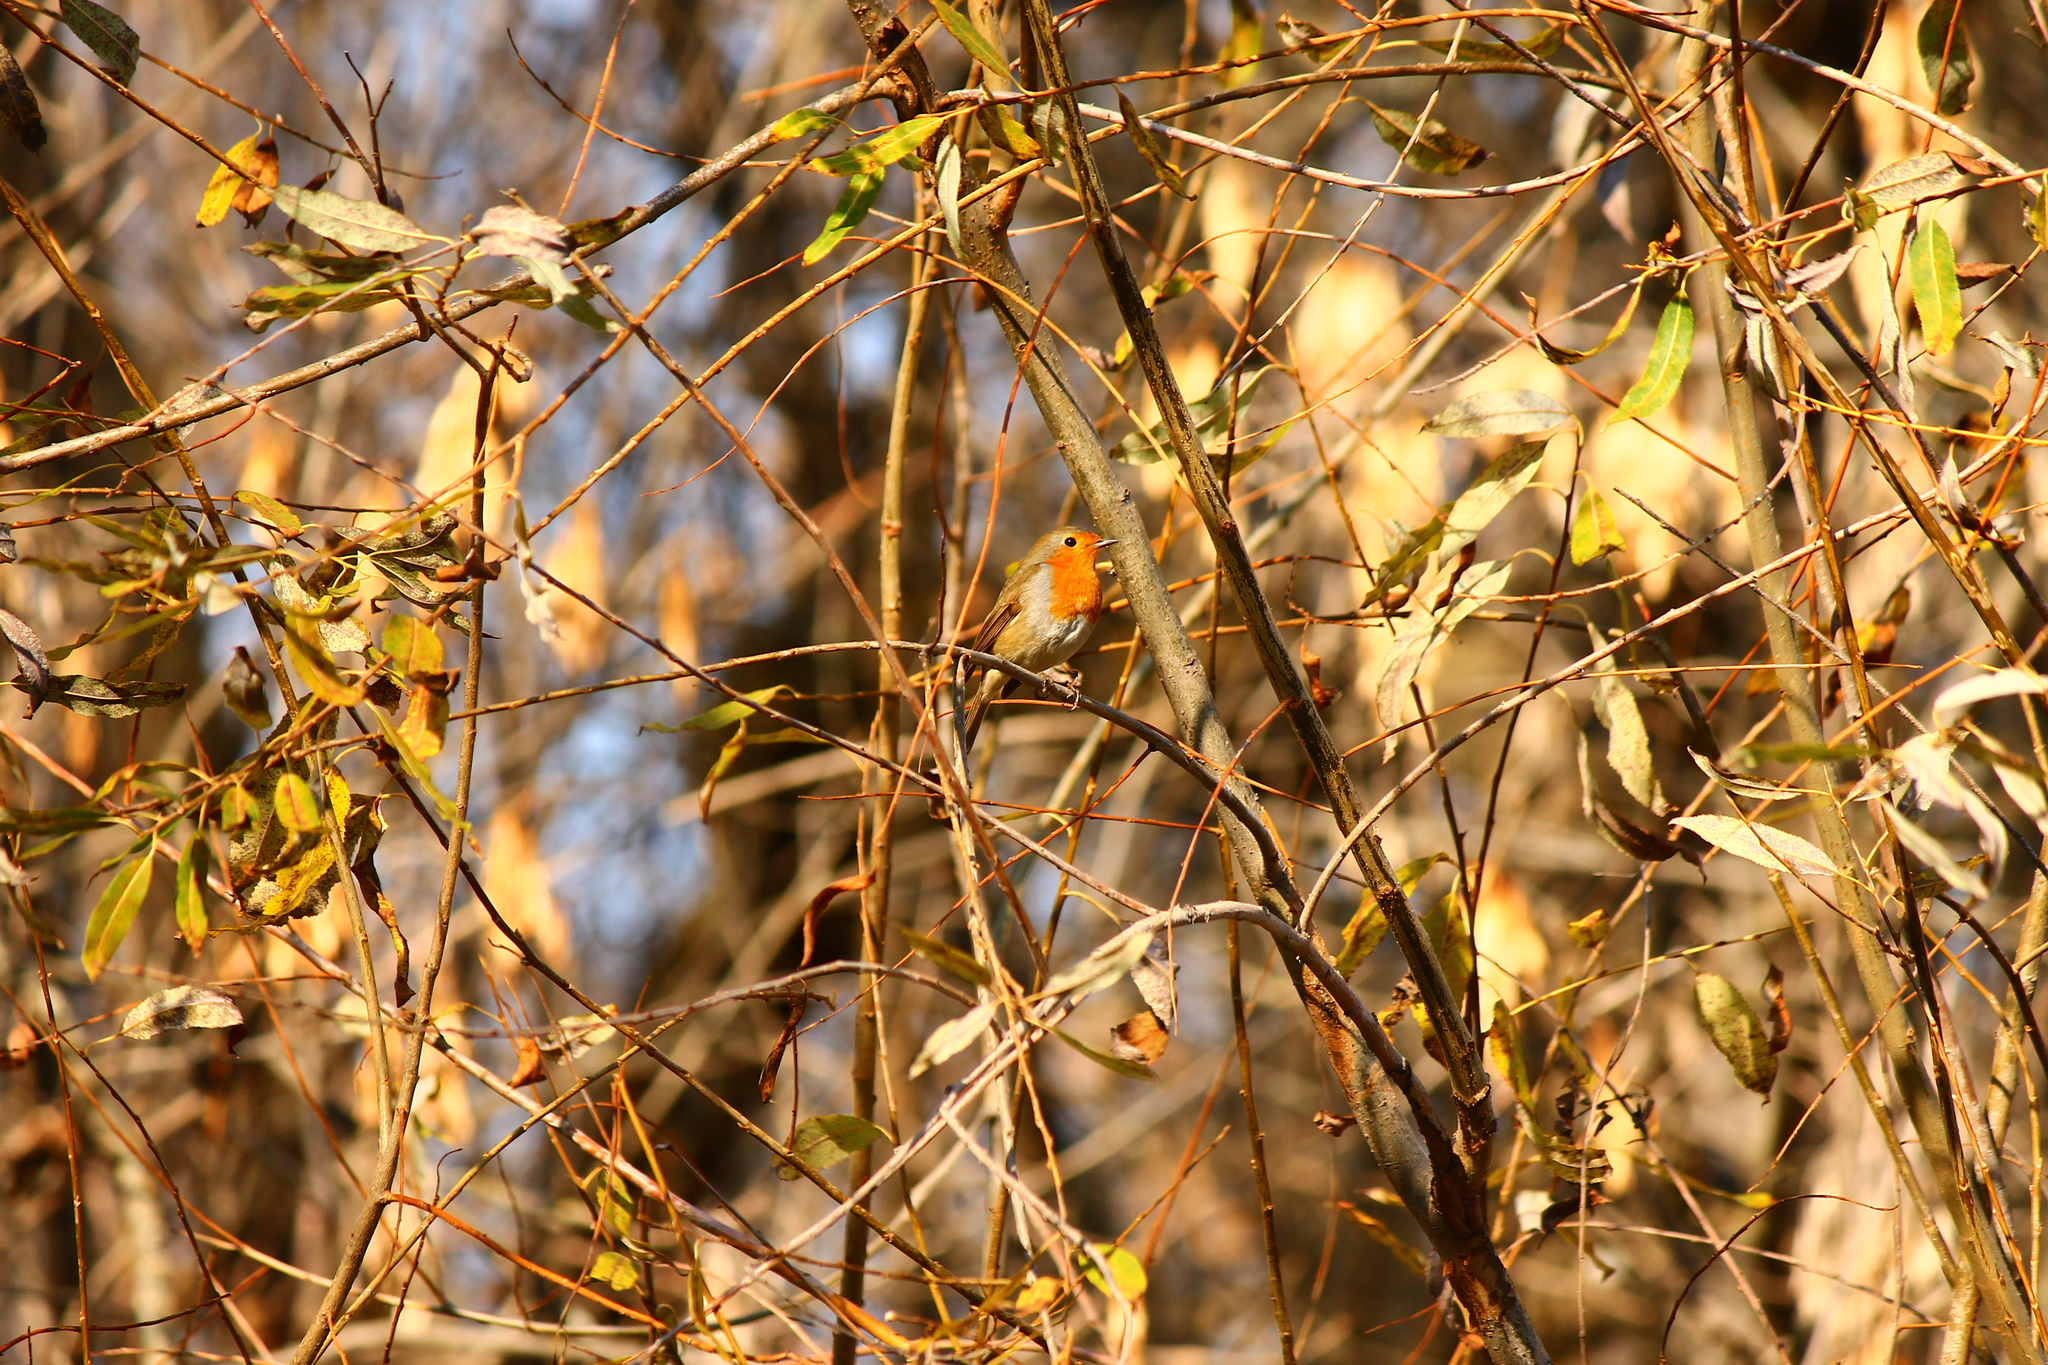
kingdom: Animalia
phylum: Chordata
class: Aves
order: Passeriformes
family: Muscicapidae
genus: Erithacus
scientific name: Erithacus rubecula
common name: European robin
